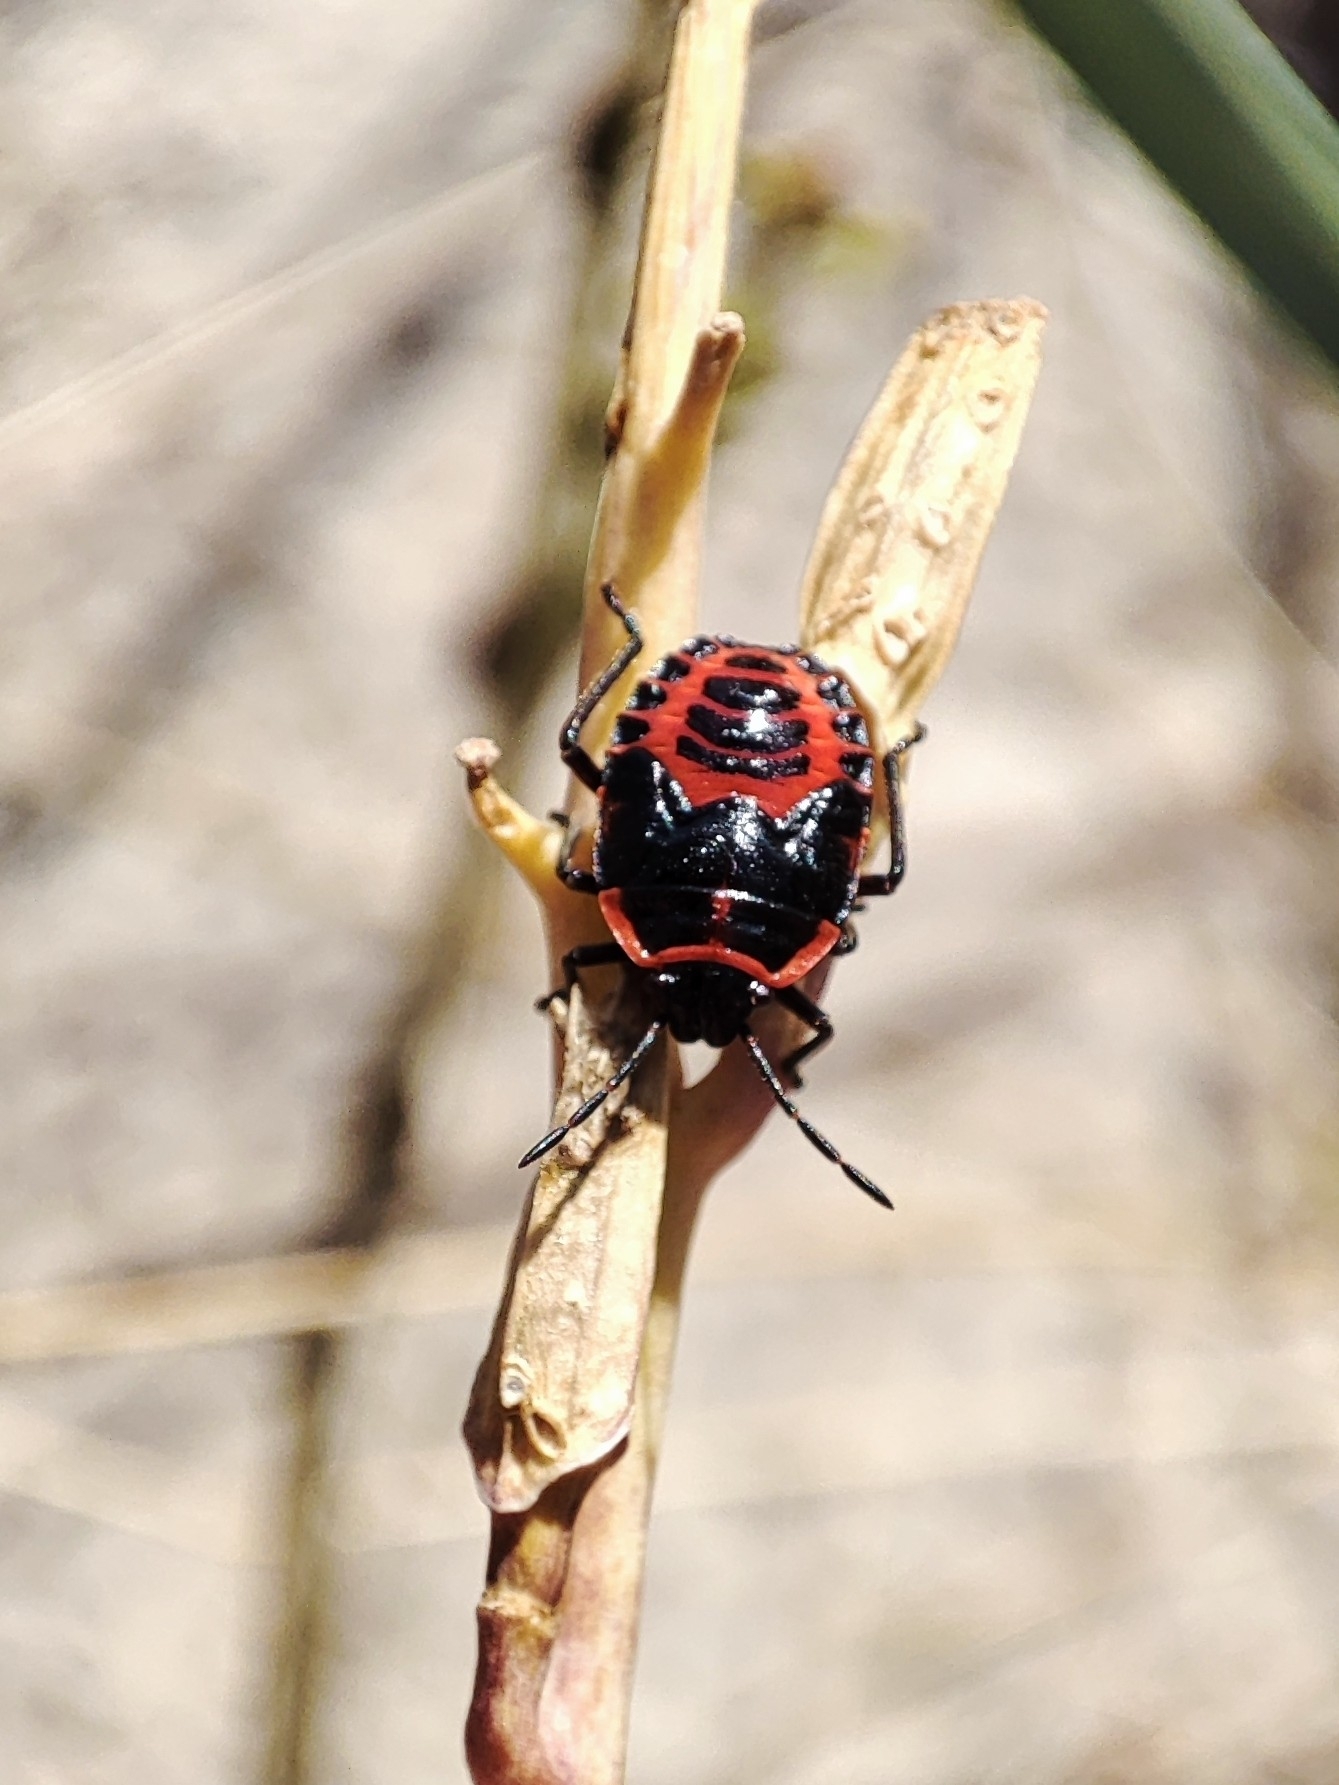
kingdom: Animalia
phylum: Arthropoda
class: Insecta
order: Hemiptera
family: Pentatomidae
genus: Eurydema
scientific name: Eurydema spectabilis
